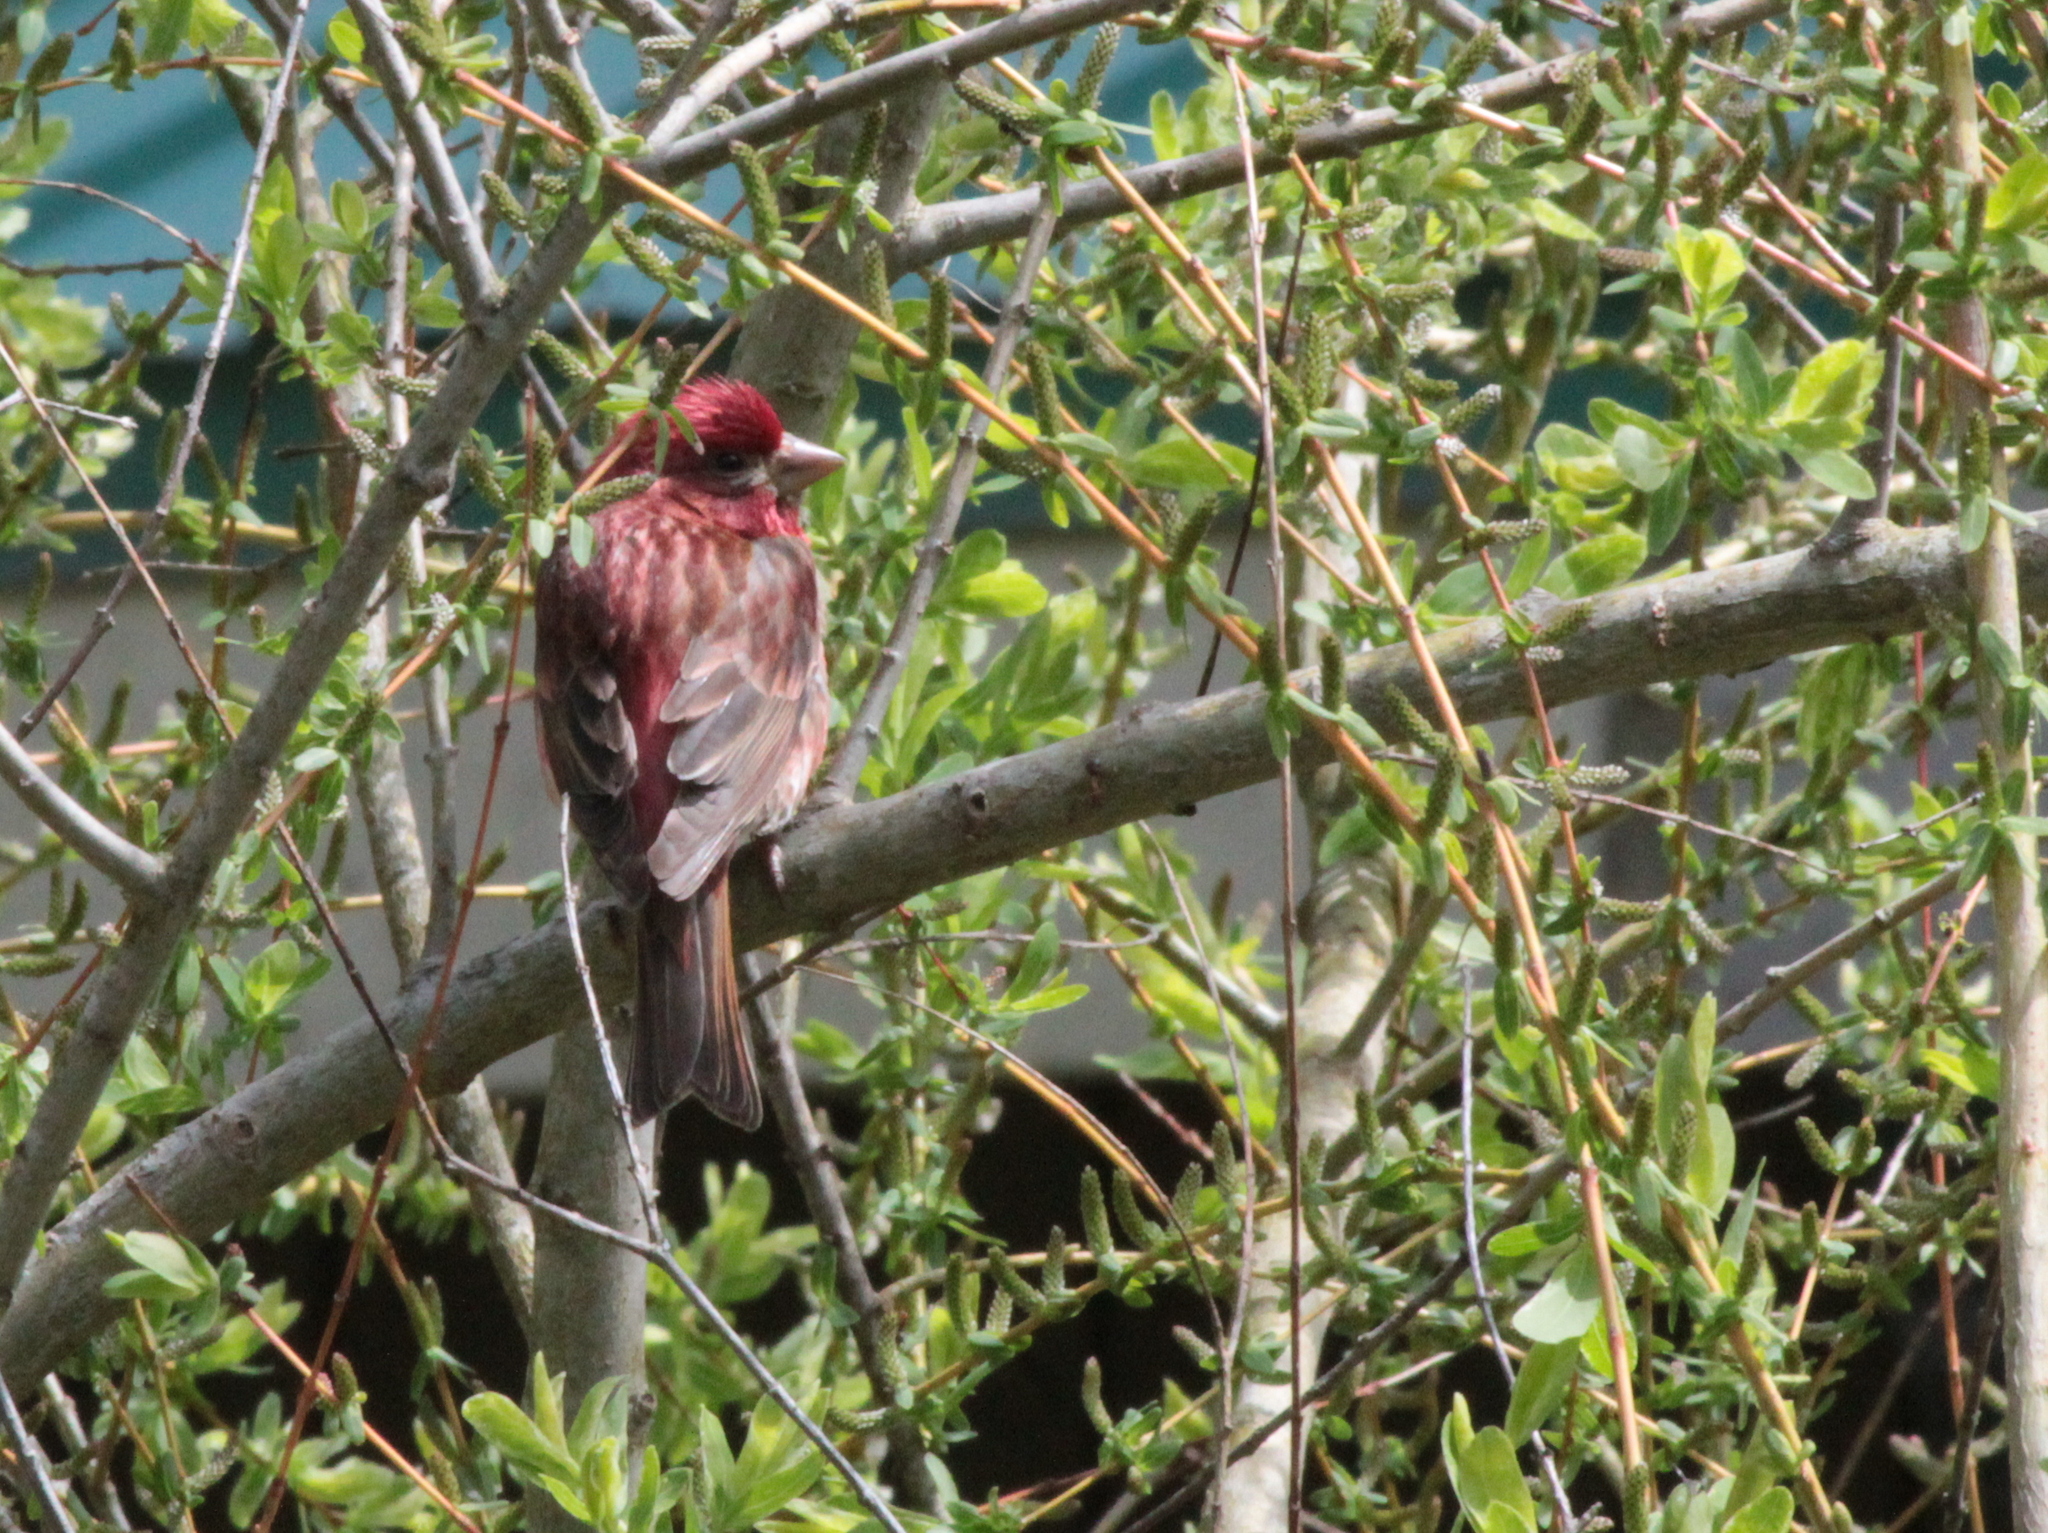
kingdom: Animalia
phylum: Chordata
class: Aves
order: Passeriformes
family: Fringillidae
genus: Haemorhous
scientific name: Haemorhous purpureus
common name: Purple finch
